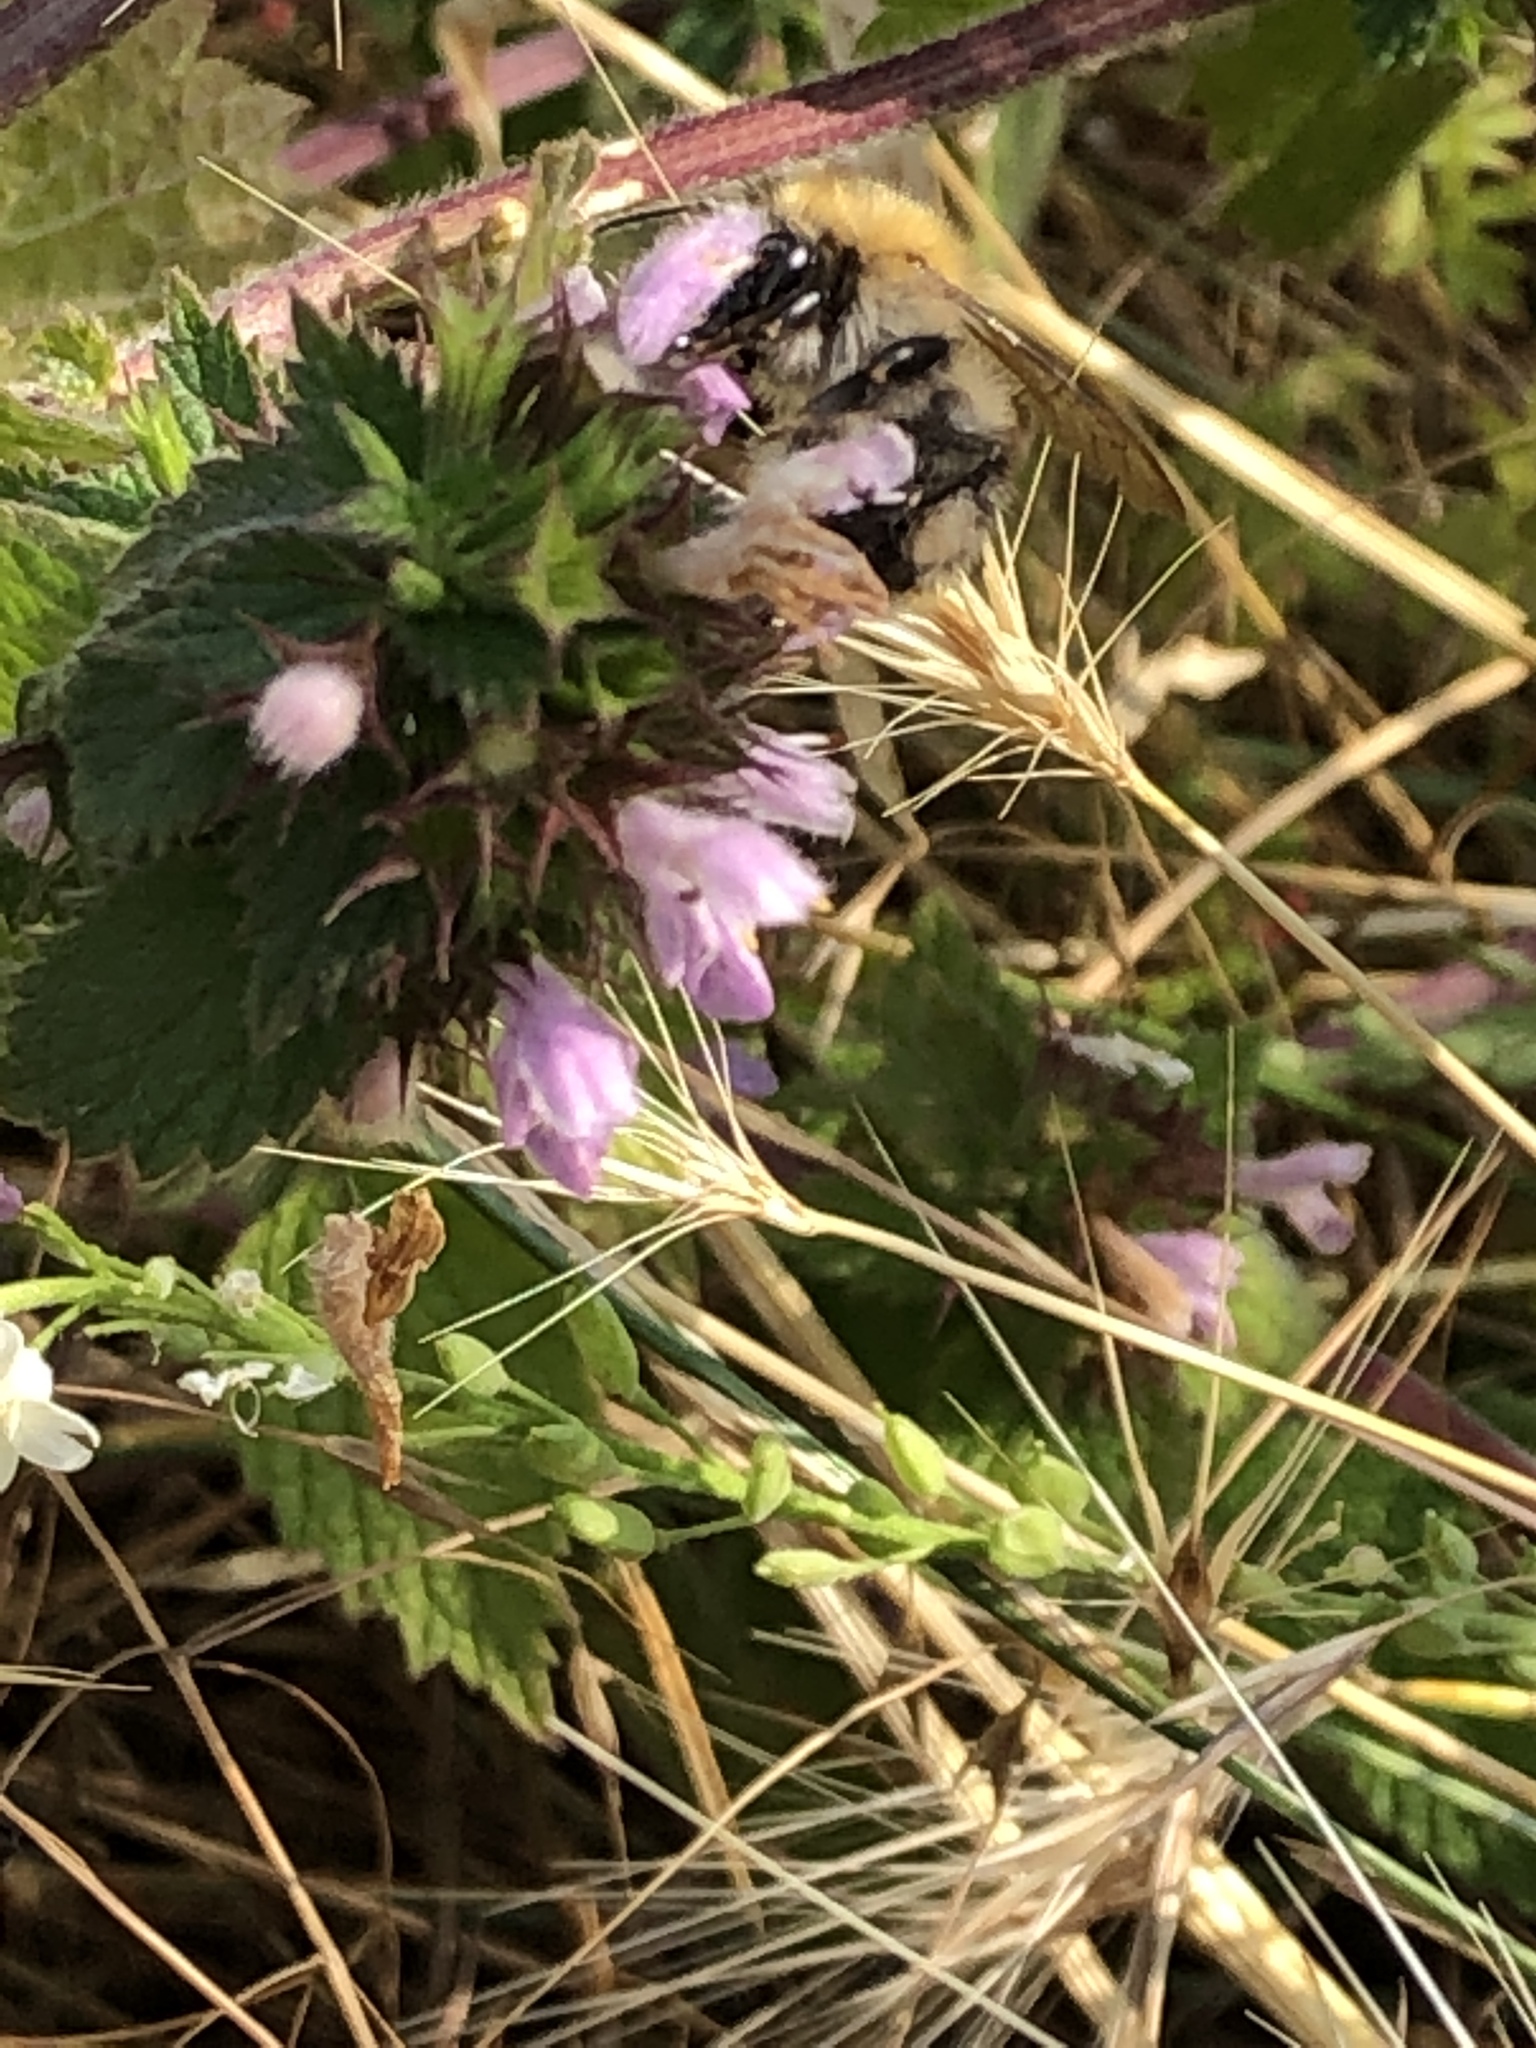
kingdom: Animalia
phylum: Arthropoda
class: Insecta
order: Hymenoptera
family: Apidae
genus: Bombus
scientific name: Bombus pascuorum
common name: Common carder bee
